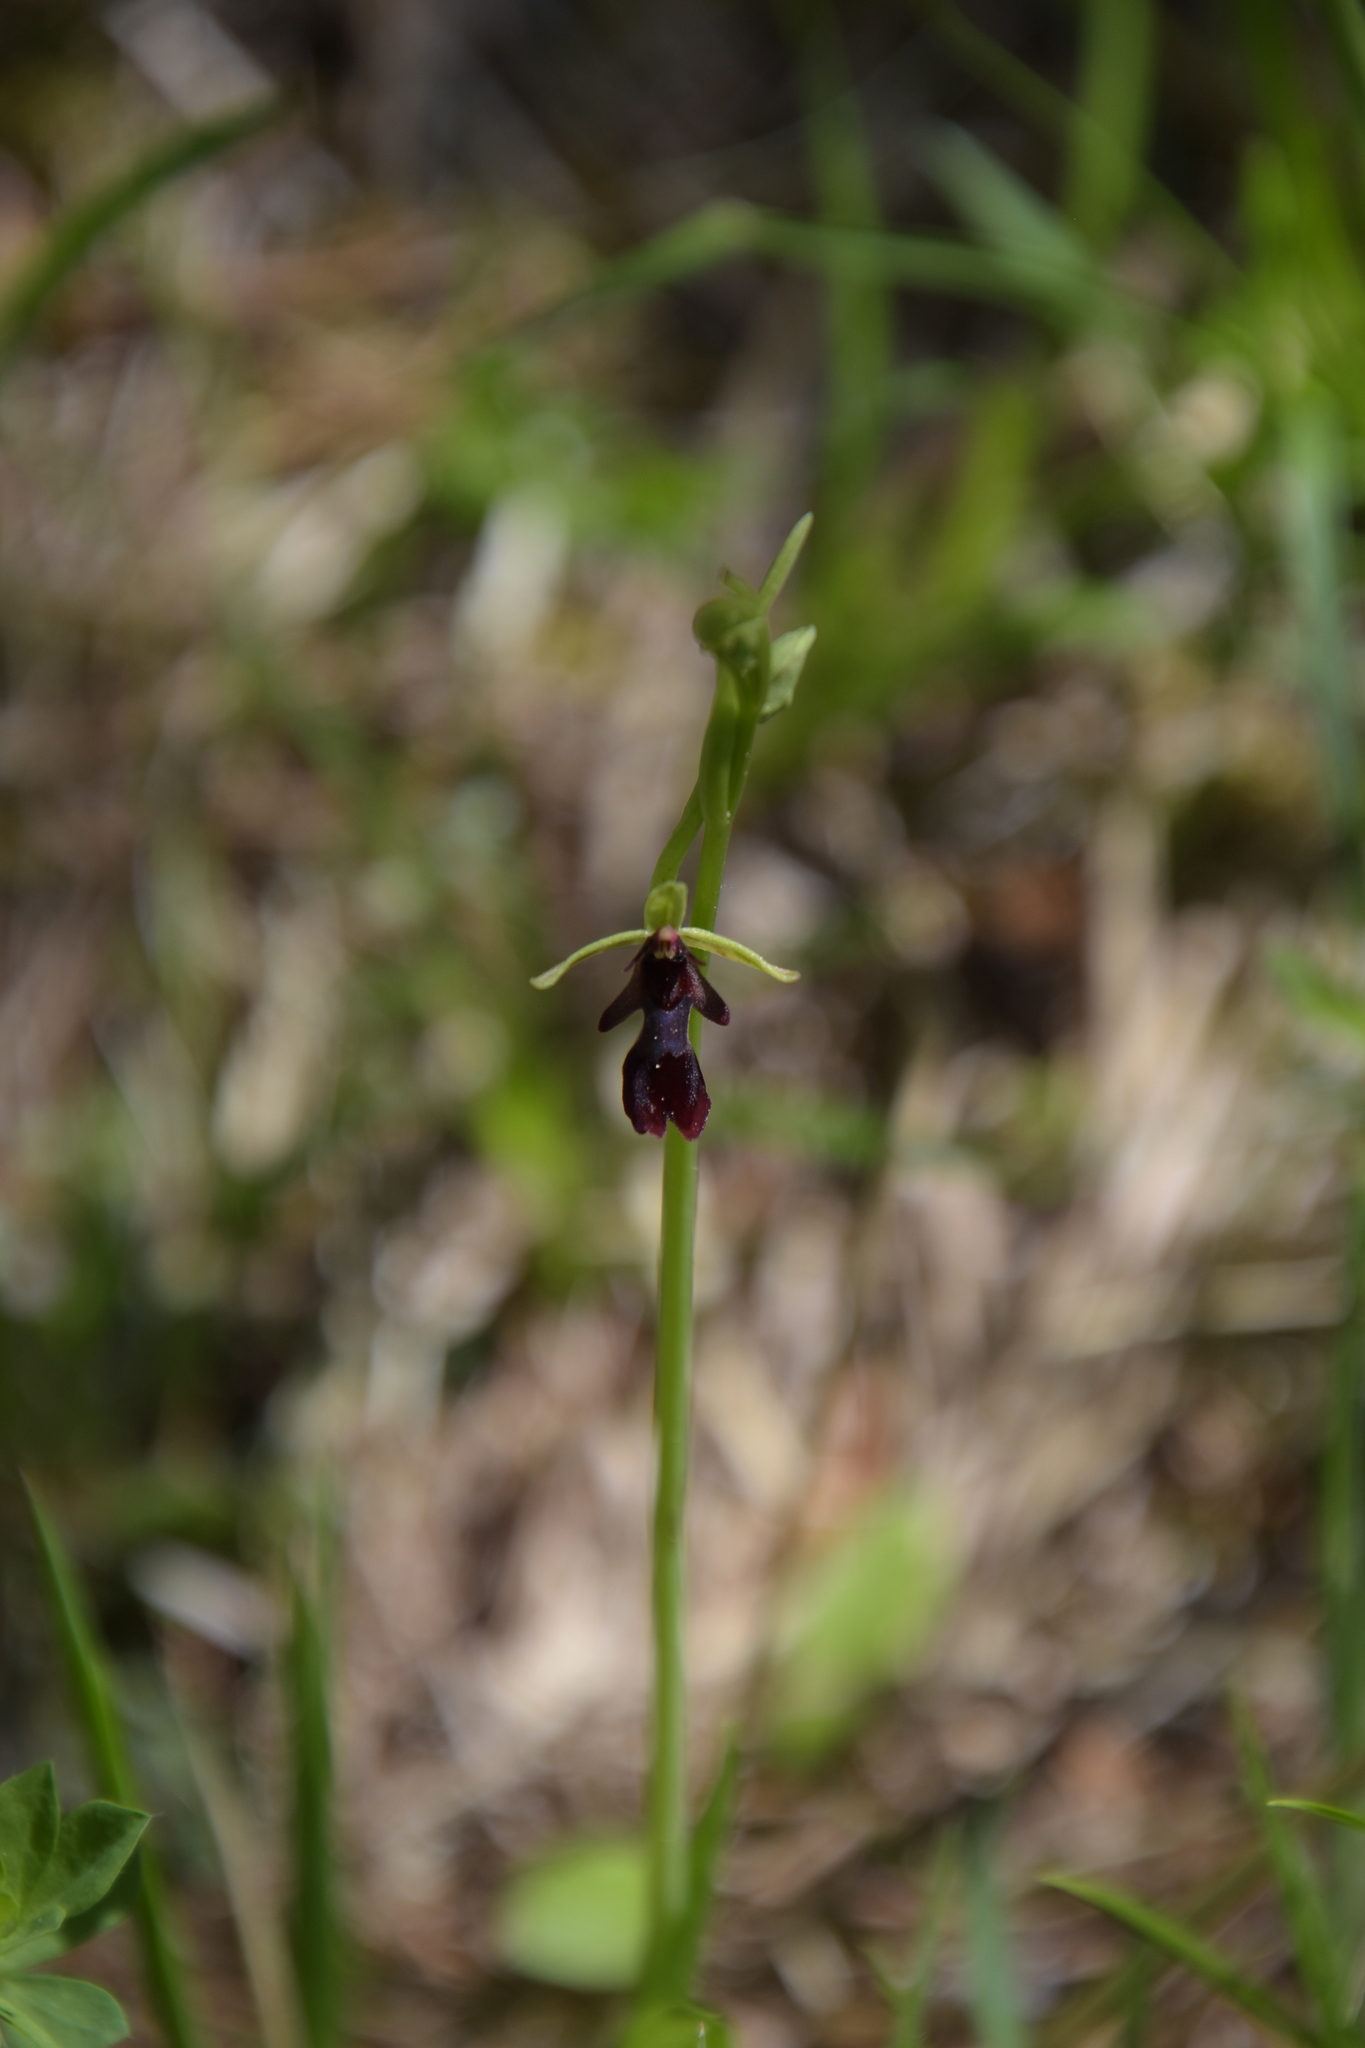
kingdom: Plantae
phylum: Tracheophyta
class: Liliopsida
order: Asparagales
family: Orchidaceae
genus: Ophrys
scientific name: Ophrys insectifera
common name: Fly orchid
